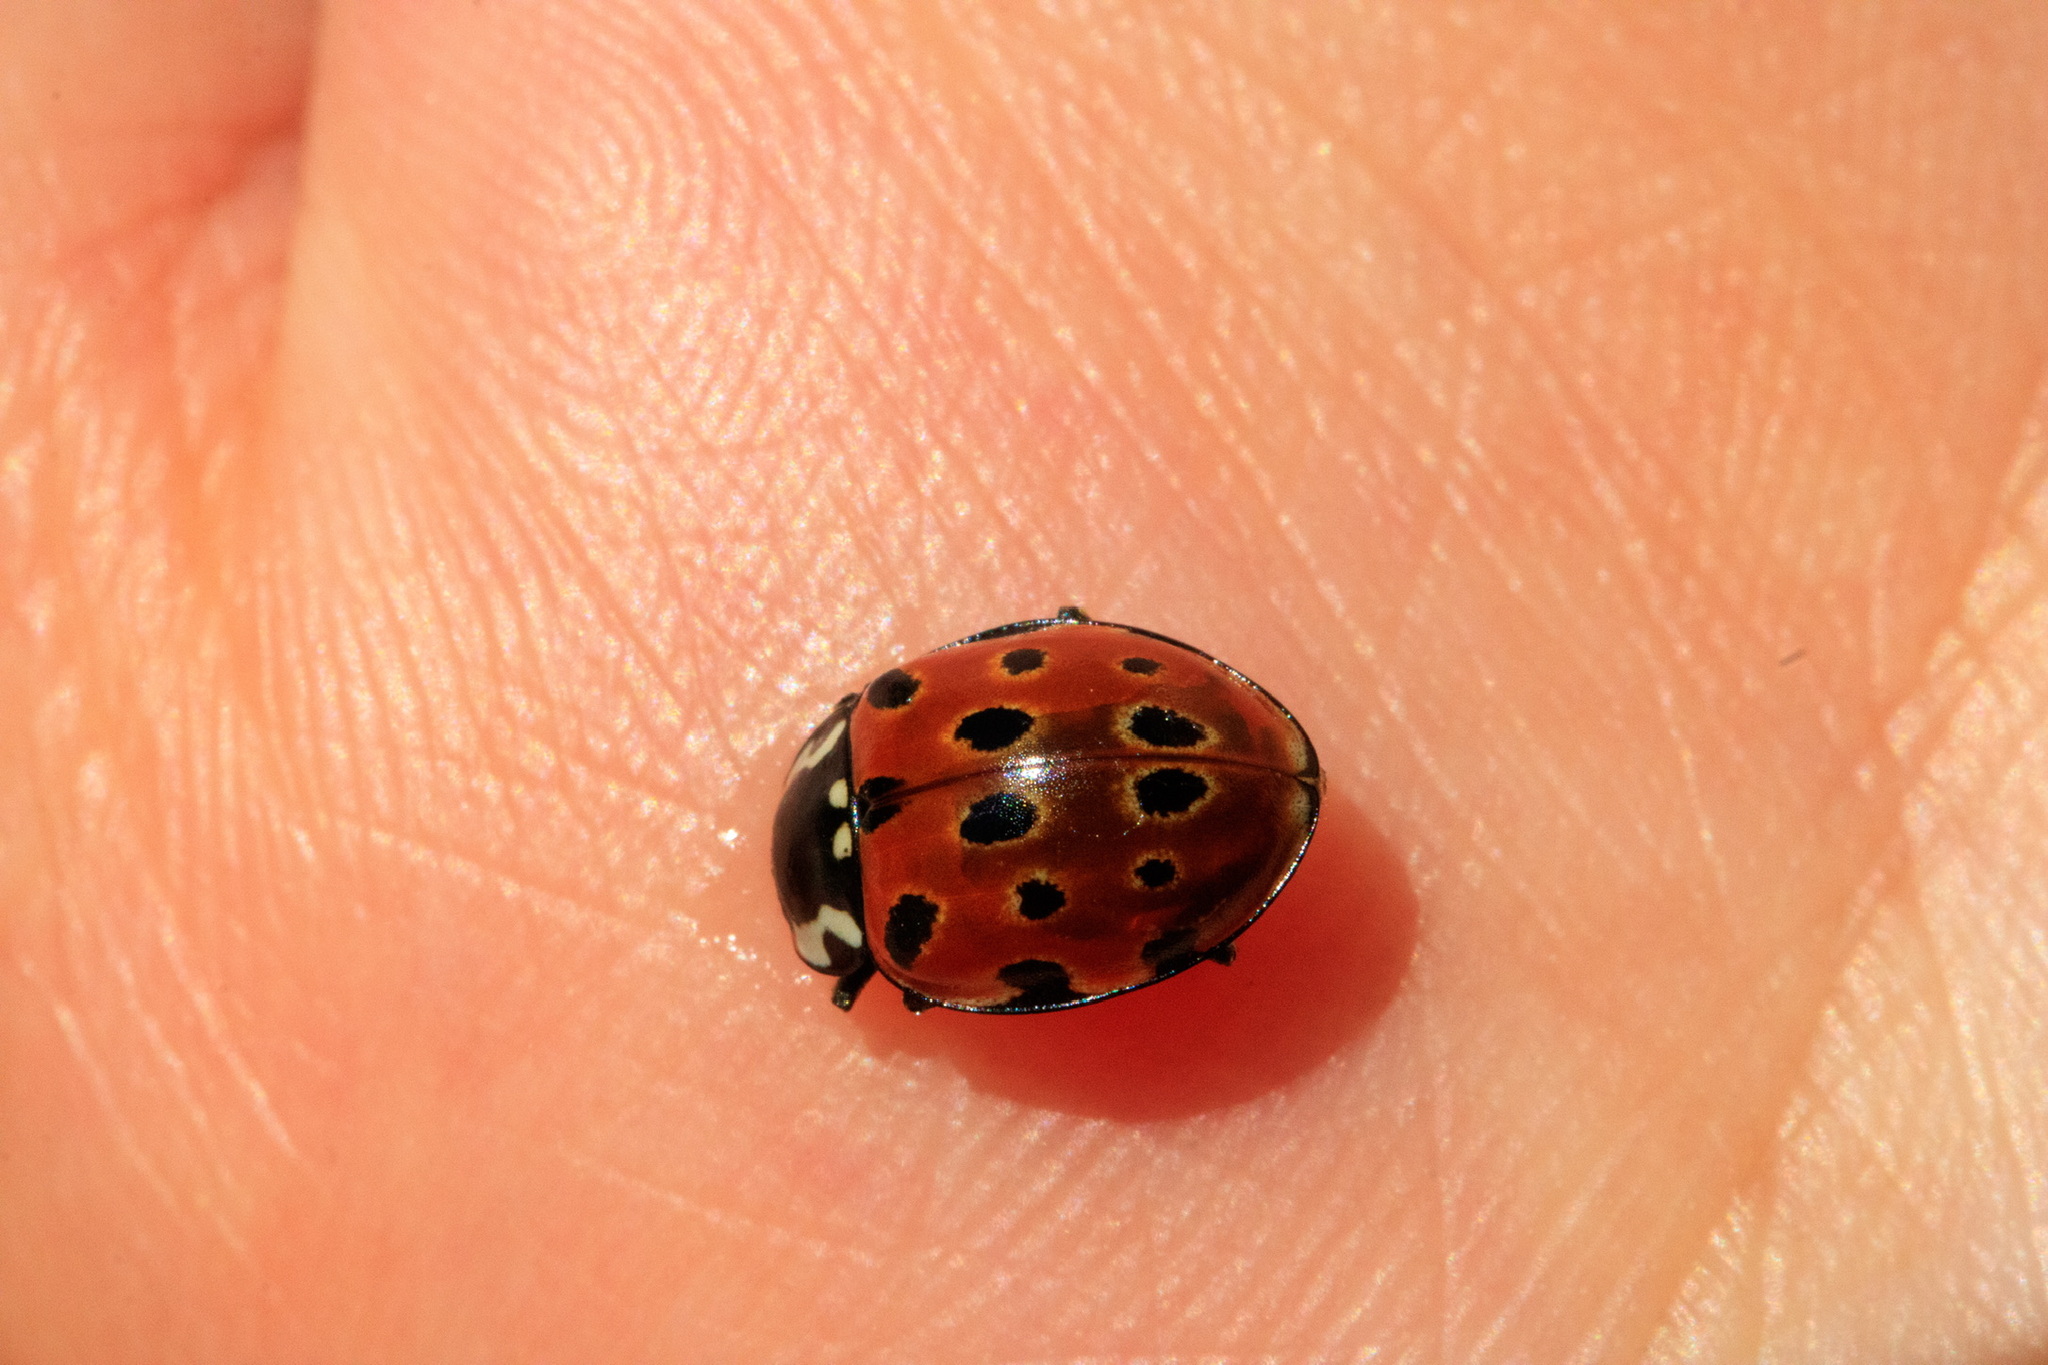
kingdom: Animalia
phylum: Arthropoda
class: Insecta
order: Coleoptera
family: Coccinellidae
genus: Anatis
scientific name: Anatis ocellata
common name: Eyed ladybird
